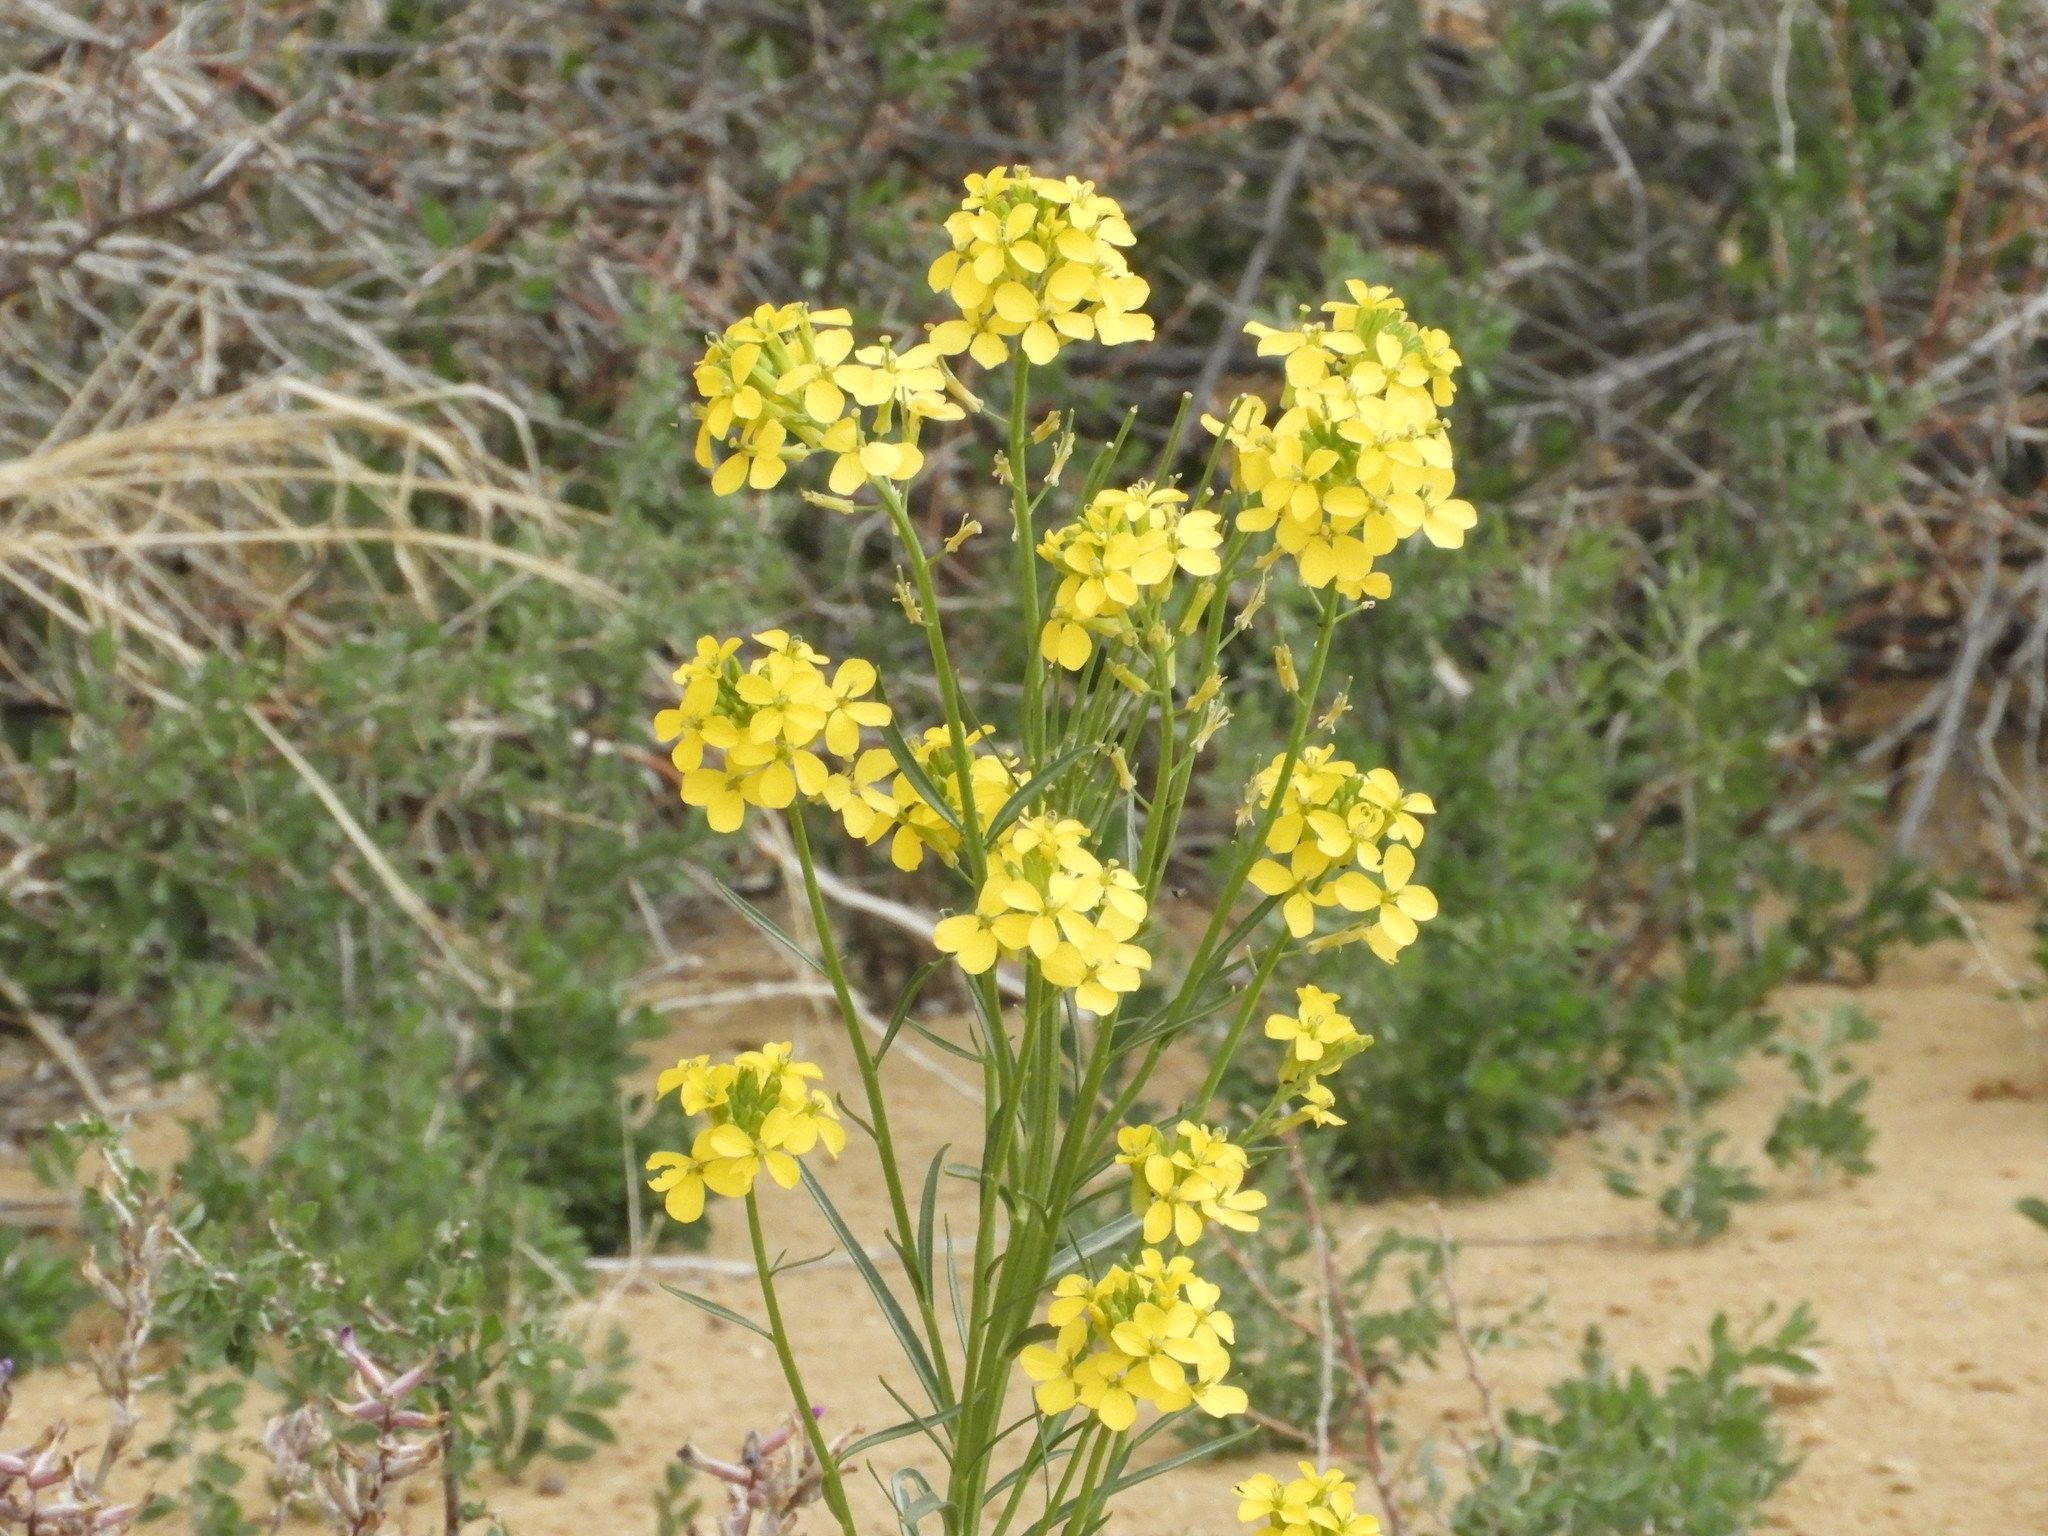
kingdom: Plantae
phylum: Tracheophyta
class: Magnoliopsida
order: Brassicales
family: Brassicaceae
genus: Erysimum
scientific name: Erysimum capitatum
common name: Western wallflower
